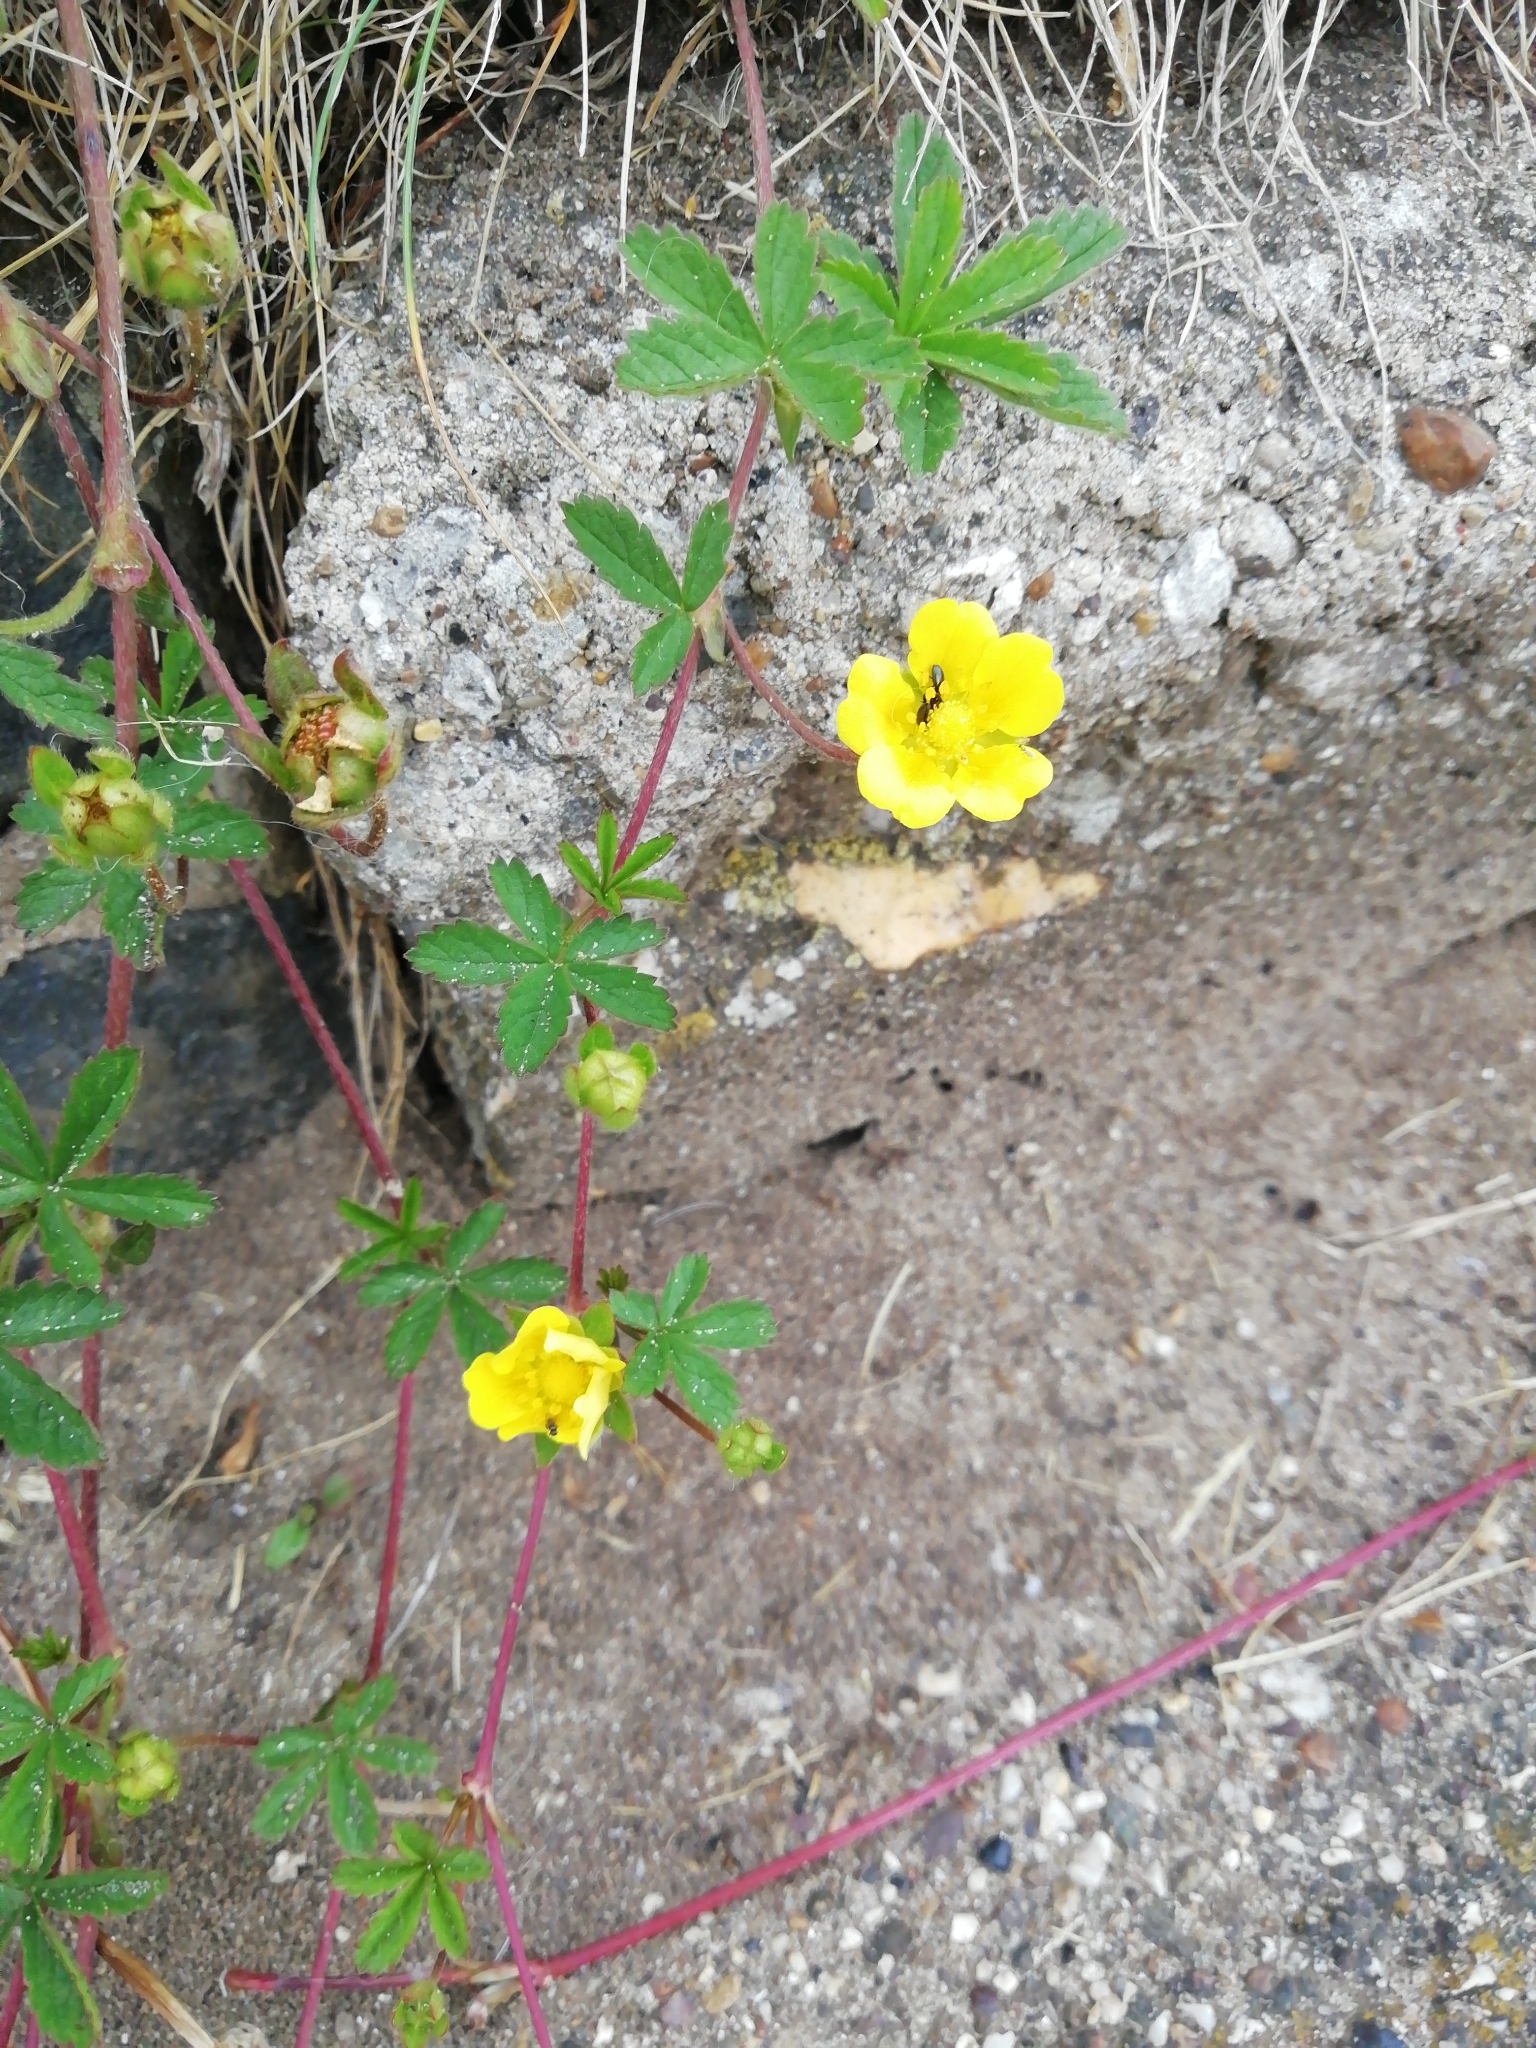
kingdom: Plantae
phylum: Tracheophyta
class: Magnoliopsida
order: Rosales
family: Rosaceae
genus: Potentilla
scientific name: Potentilla reptans
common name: Creeping cinquefoil
